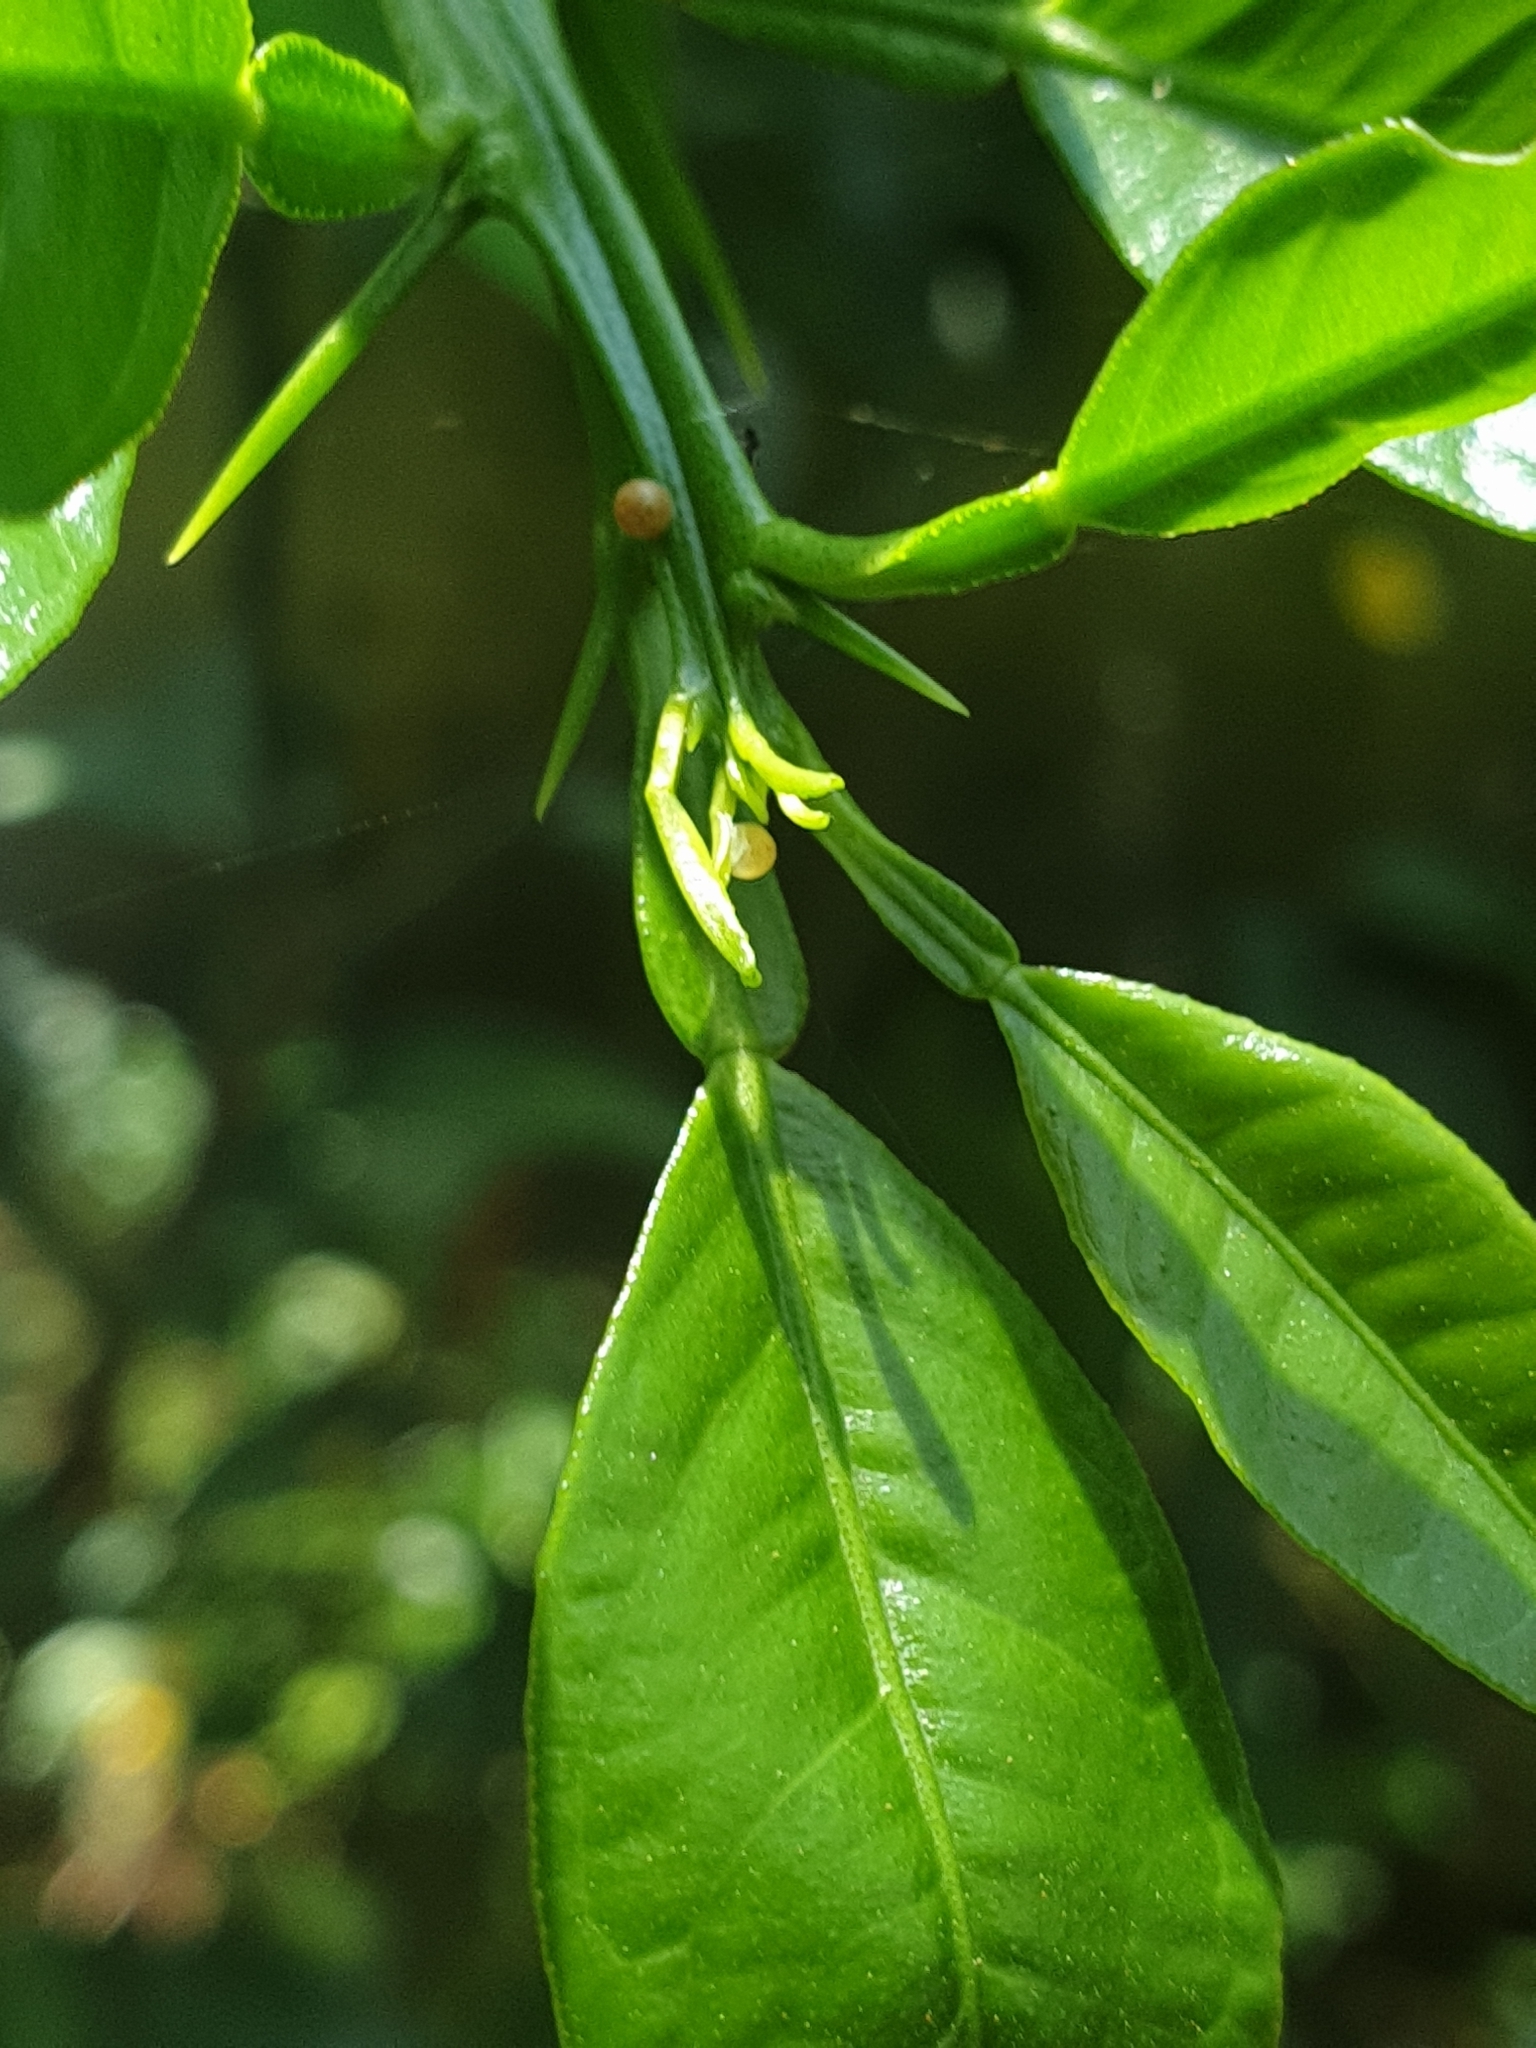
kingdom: Animalia
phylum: Arthropoda
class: Insecta
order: Lepidoptera
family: Papilionidae
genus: Papilio
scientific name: Papilio polytes
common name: Common mormon
